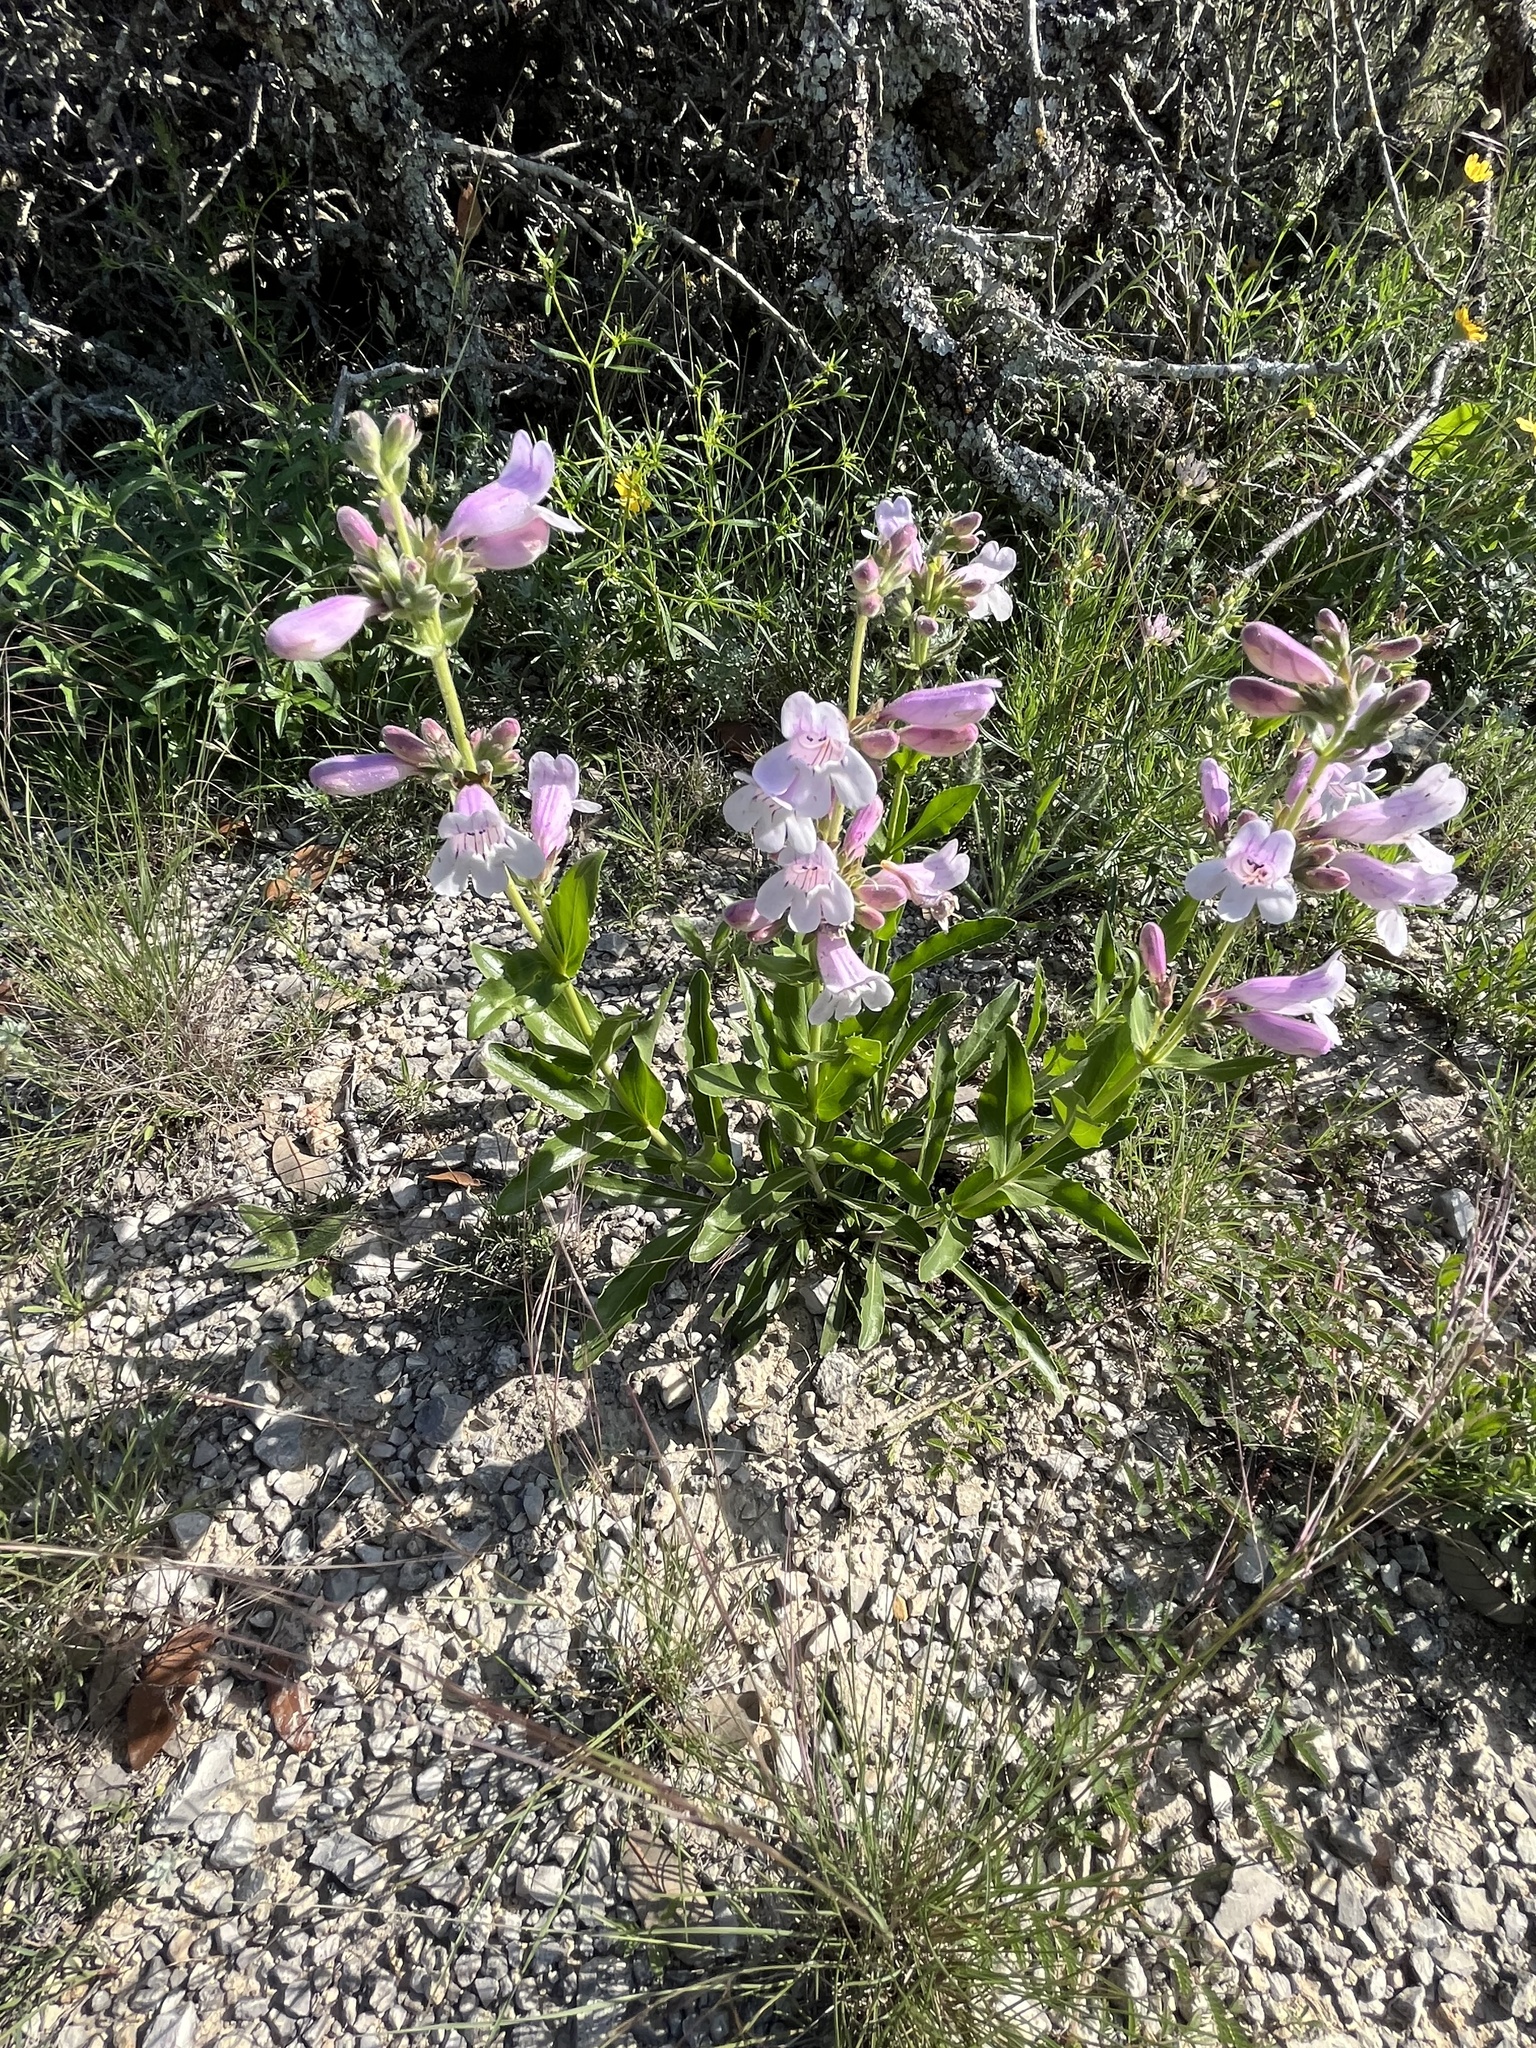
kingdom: Plantae
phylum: Tracheophyta
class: Magnoliopsida
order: Lamiales
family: Plantaginaceae
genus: Penstemon
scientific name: Penstemon cobaea
